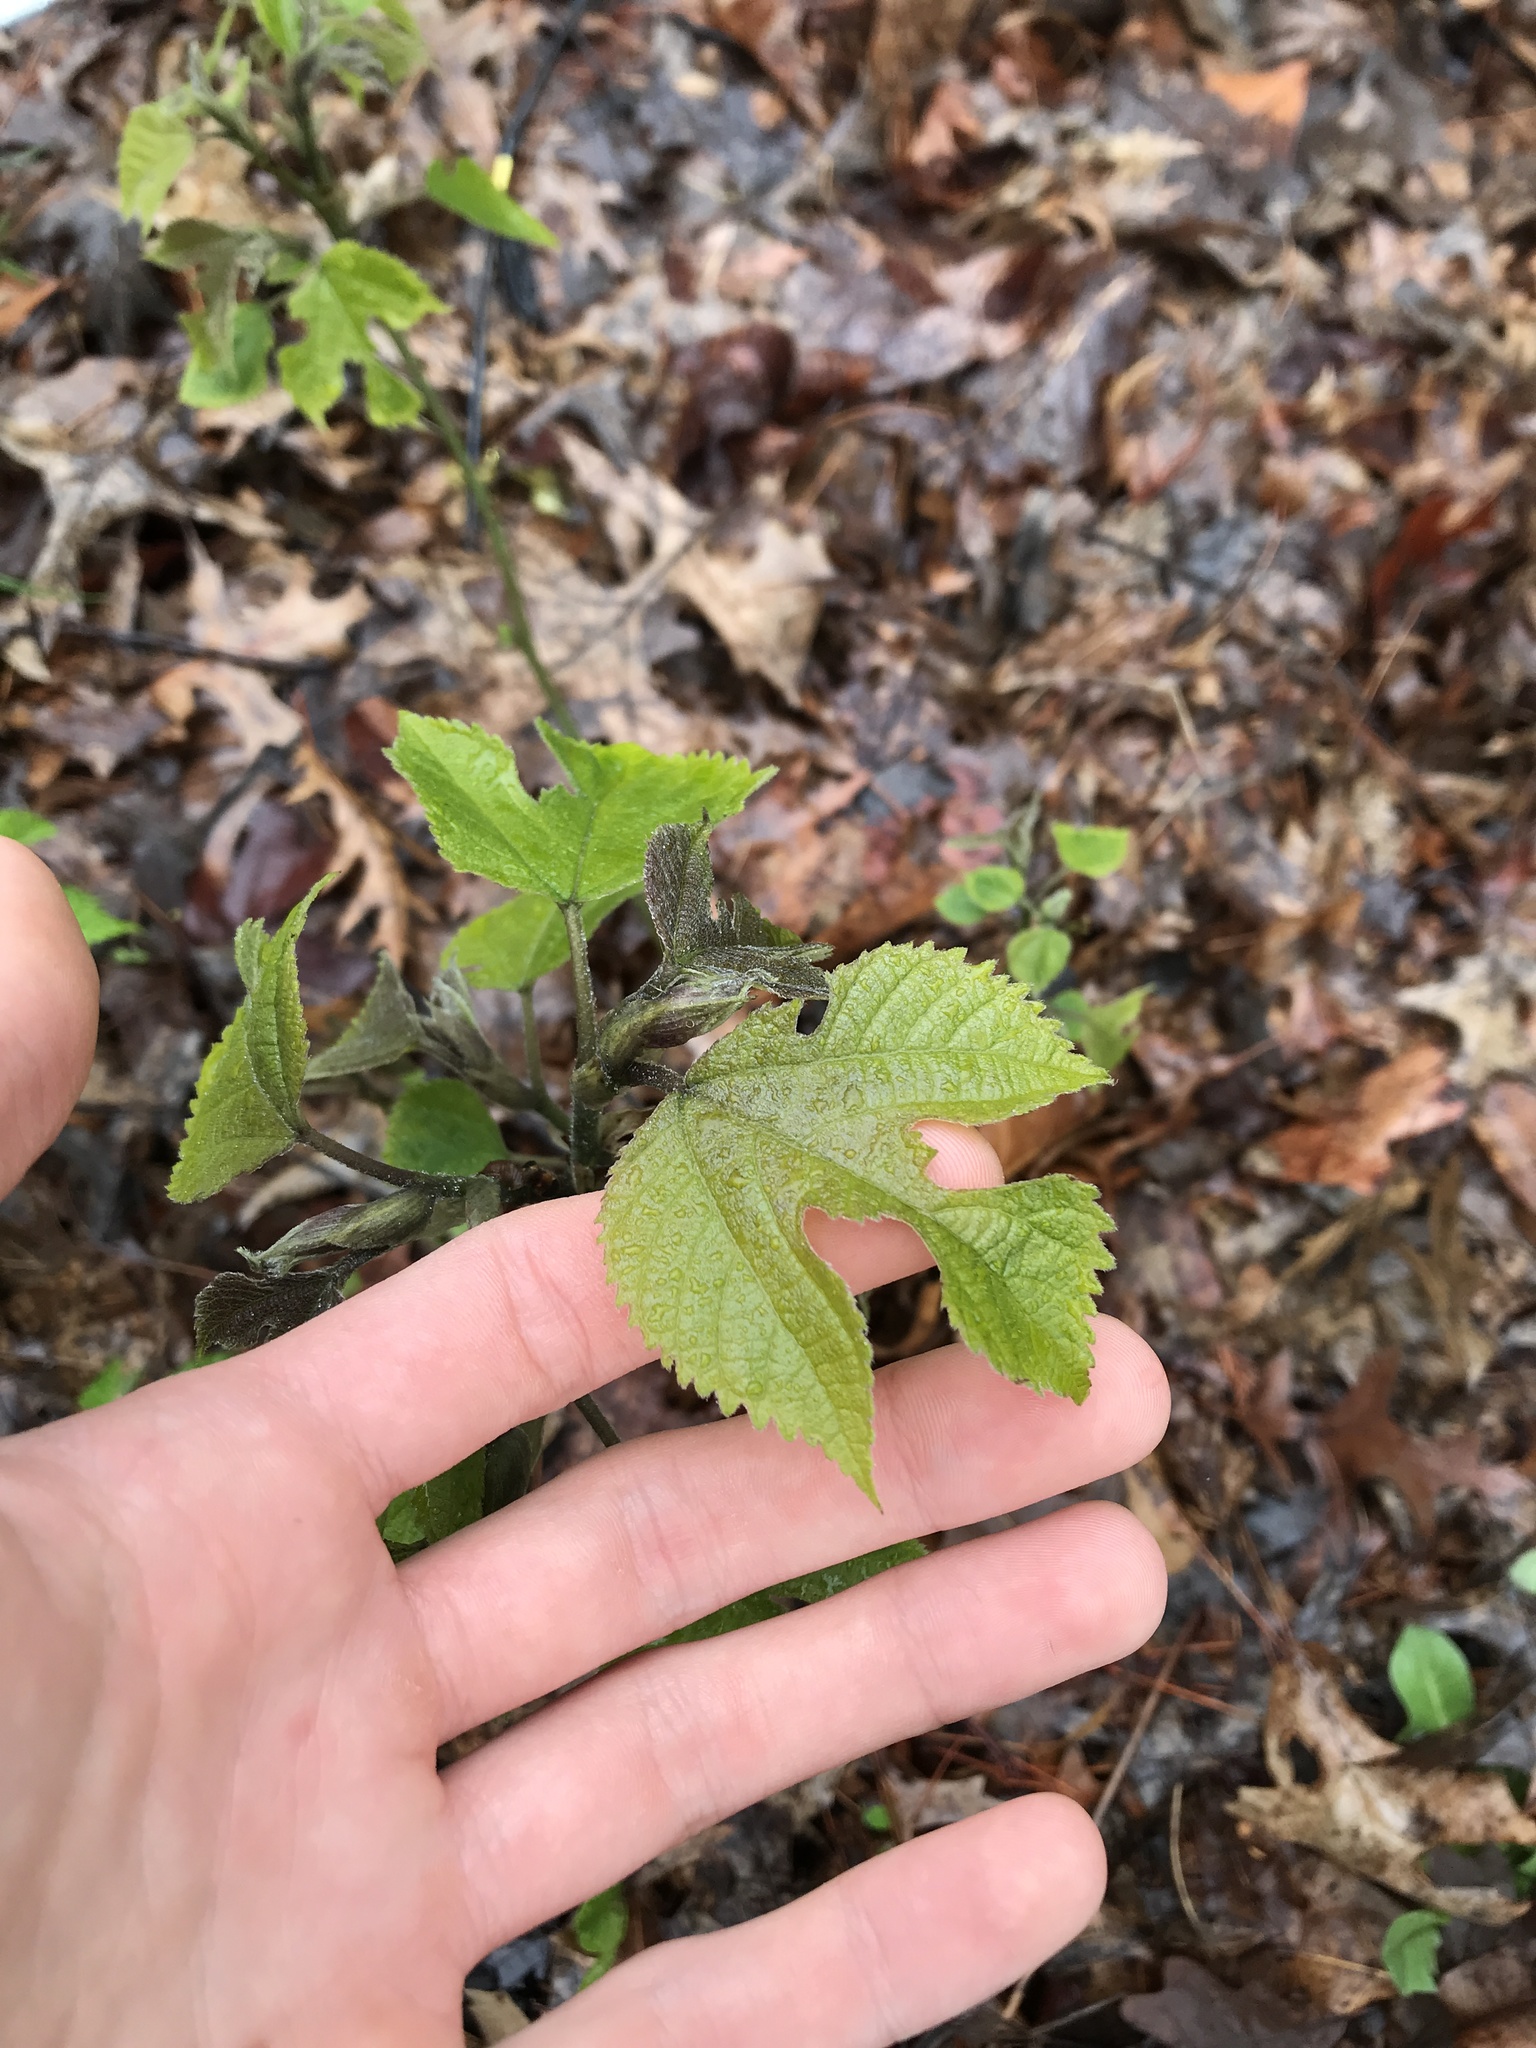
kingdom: Plantae
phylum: Tracheophyta
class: Magnoliopsida
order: Rosales
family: Moraceae
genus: Broussonetia
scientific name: Broussonetia papyrifera
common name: Paper mulberry
